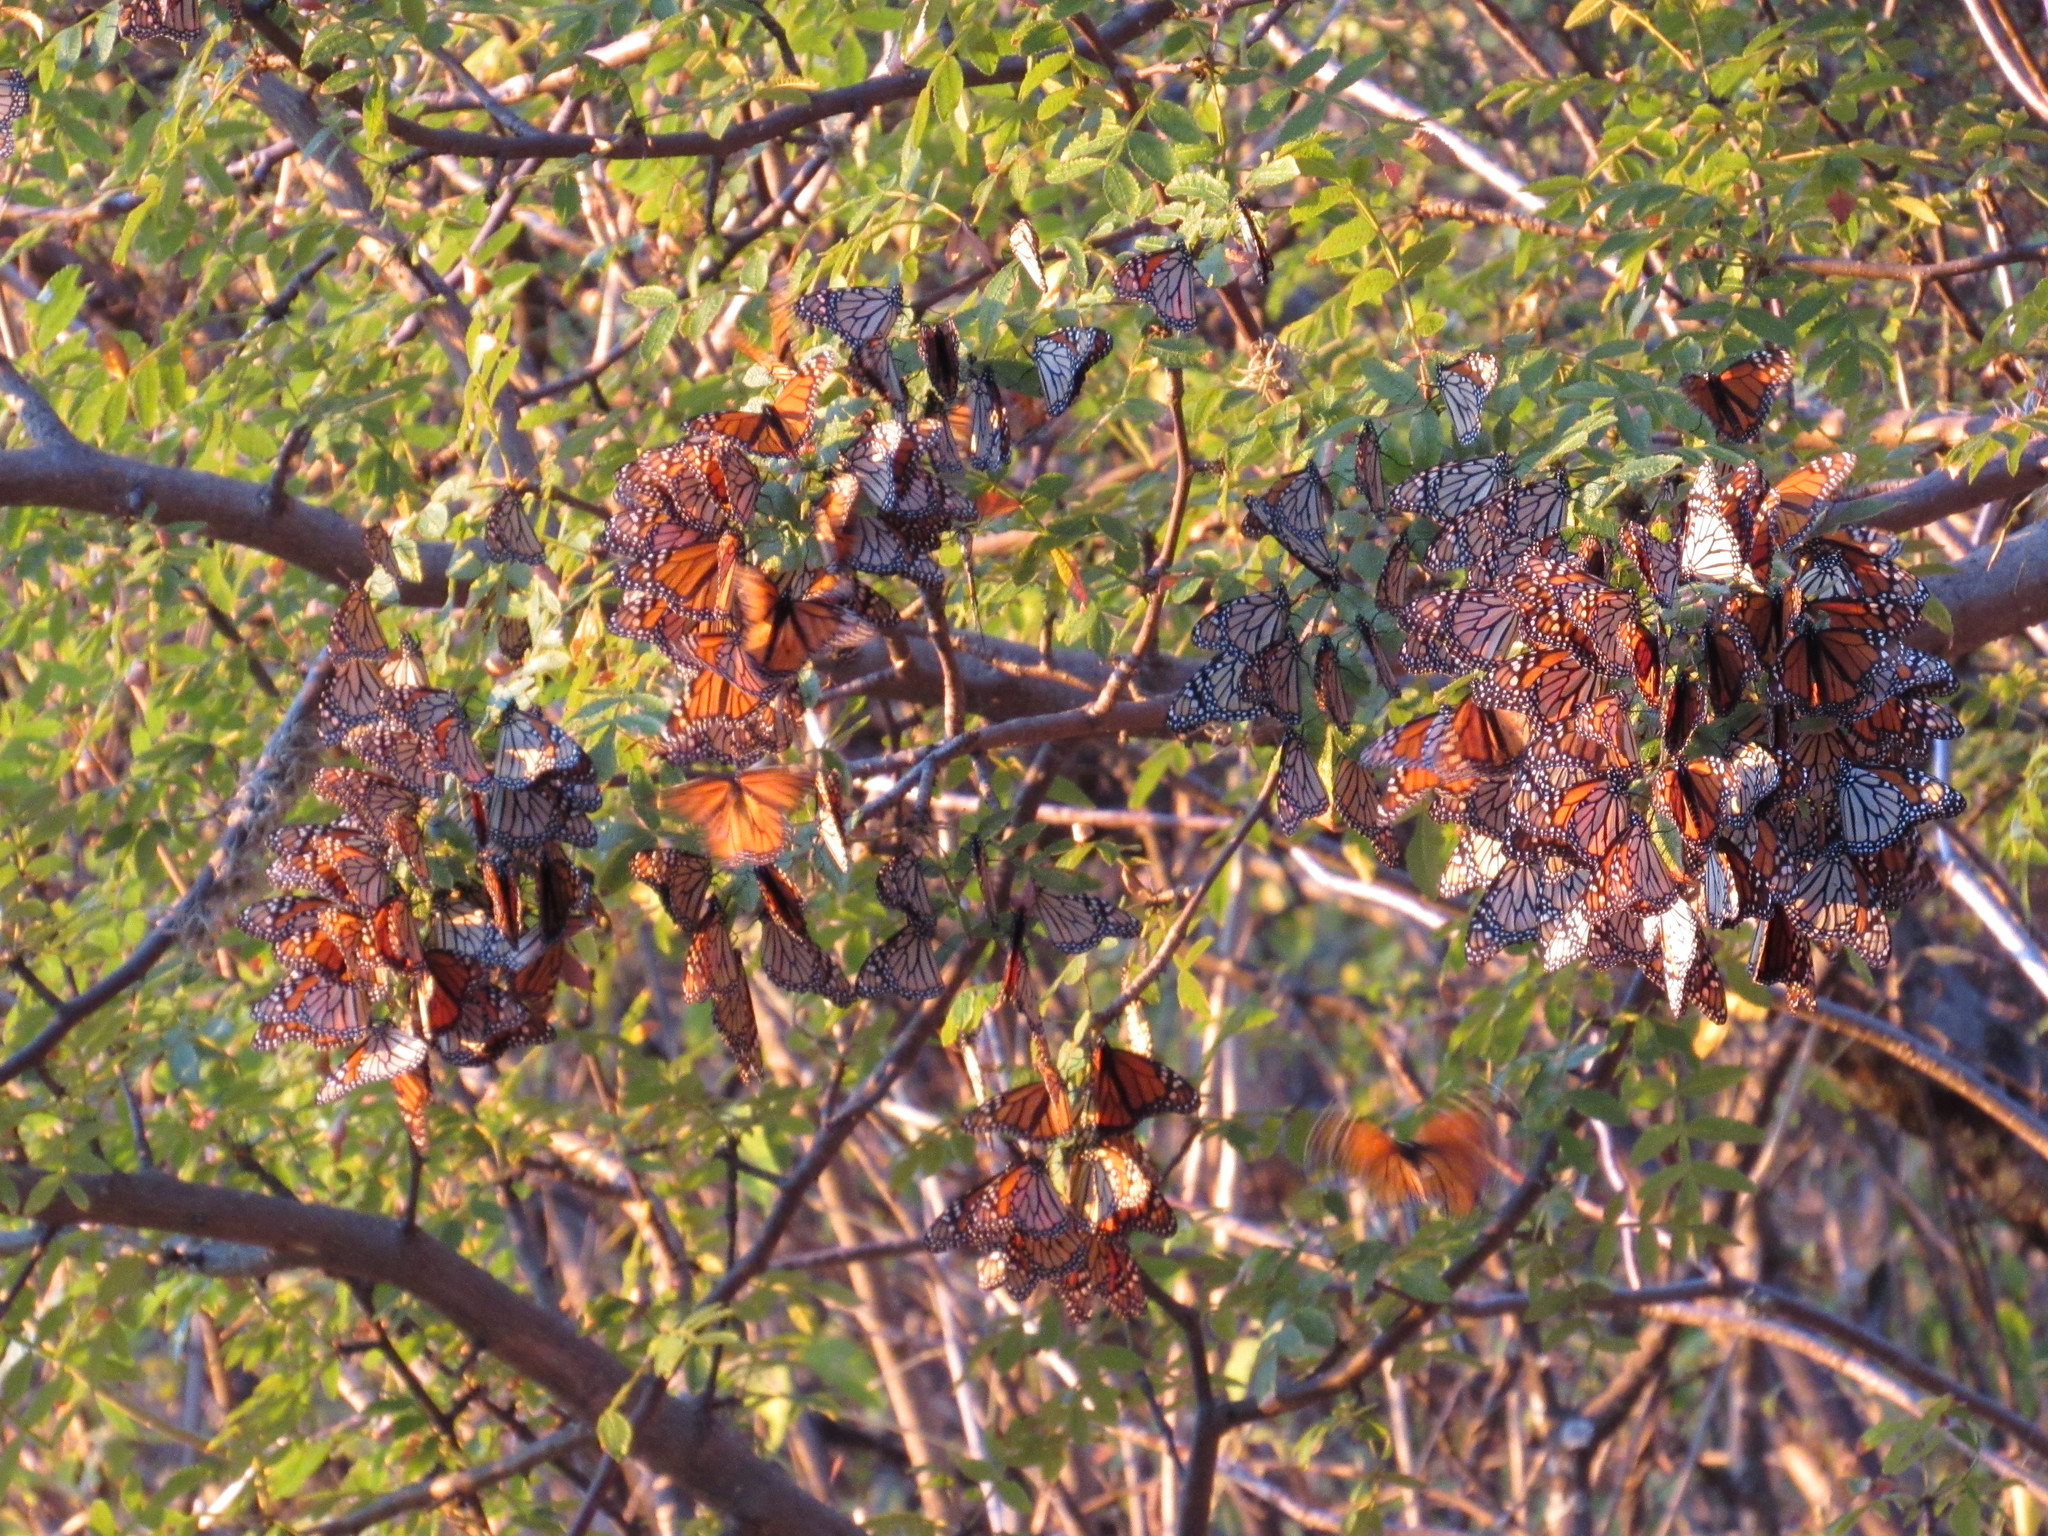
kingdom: Animalia
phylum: Arthropoda
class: Insecta
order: Lepidoptera
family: Nymphalidae
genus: Danaus
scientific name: Danaus plexippus
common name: Monarch
